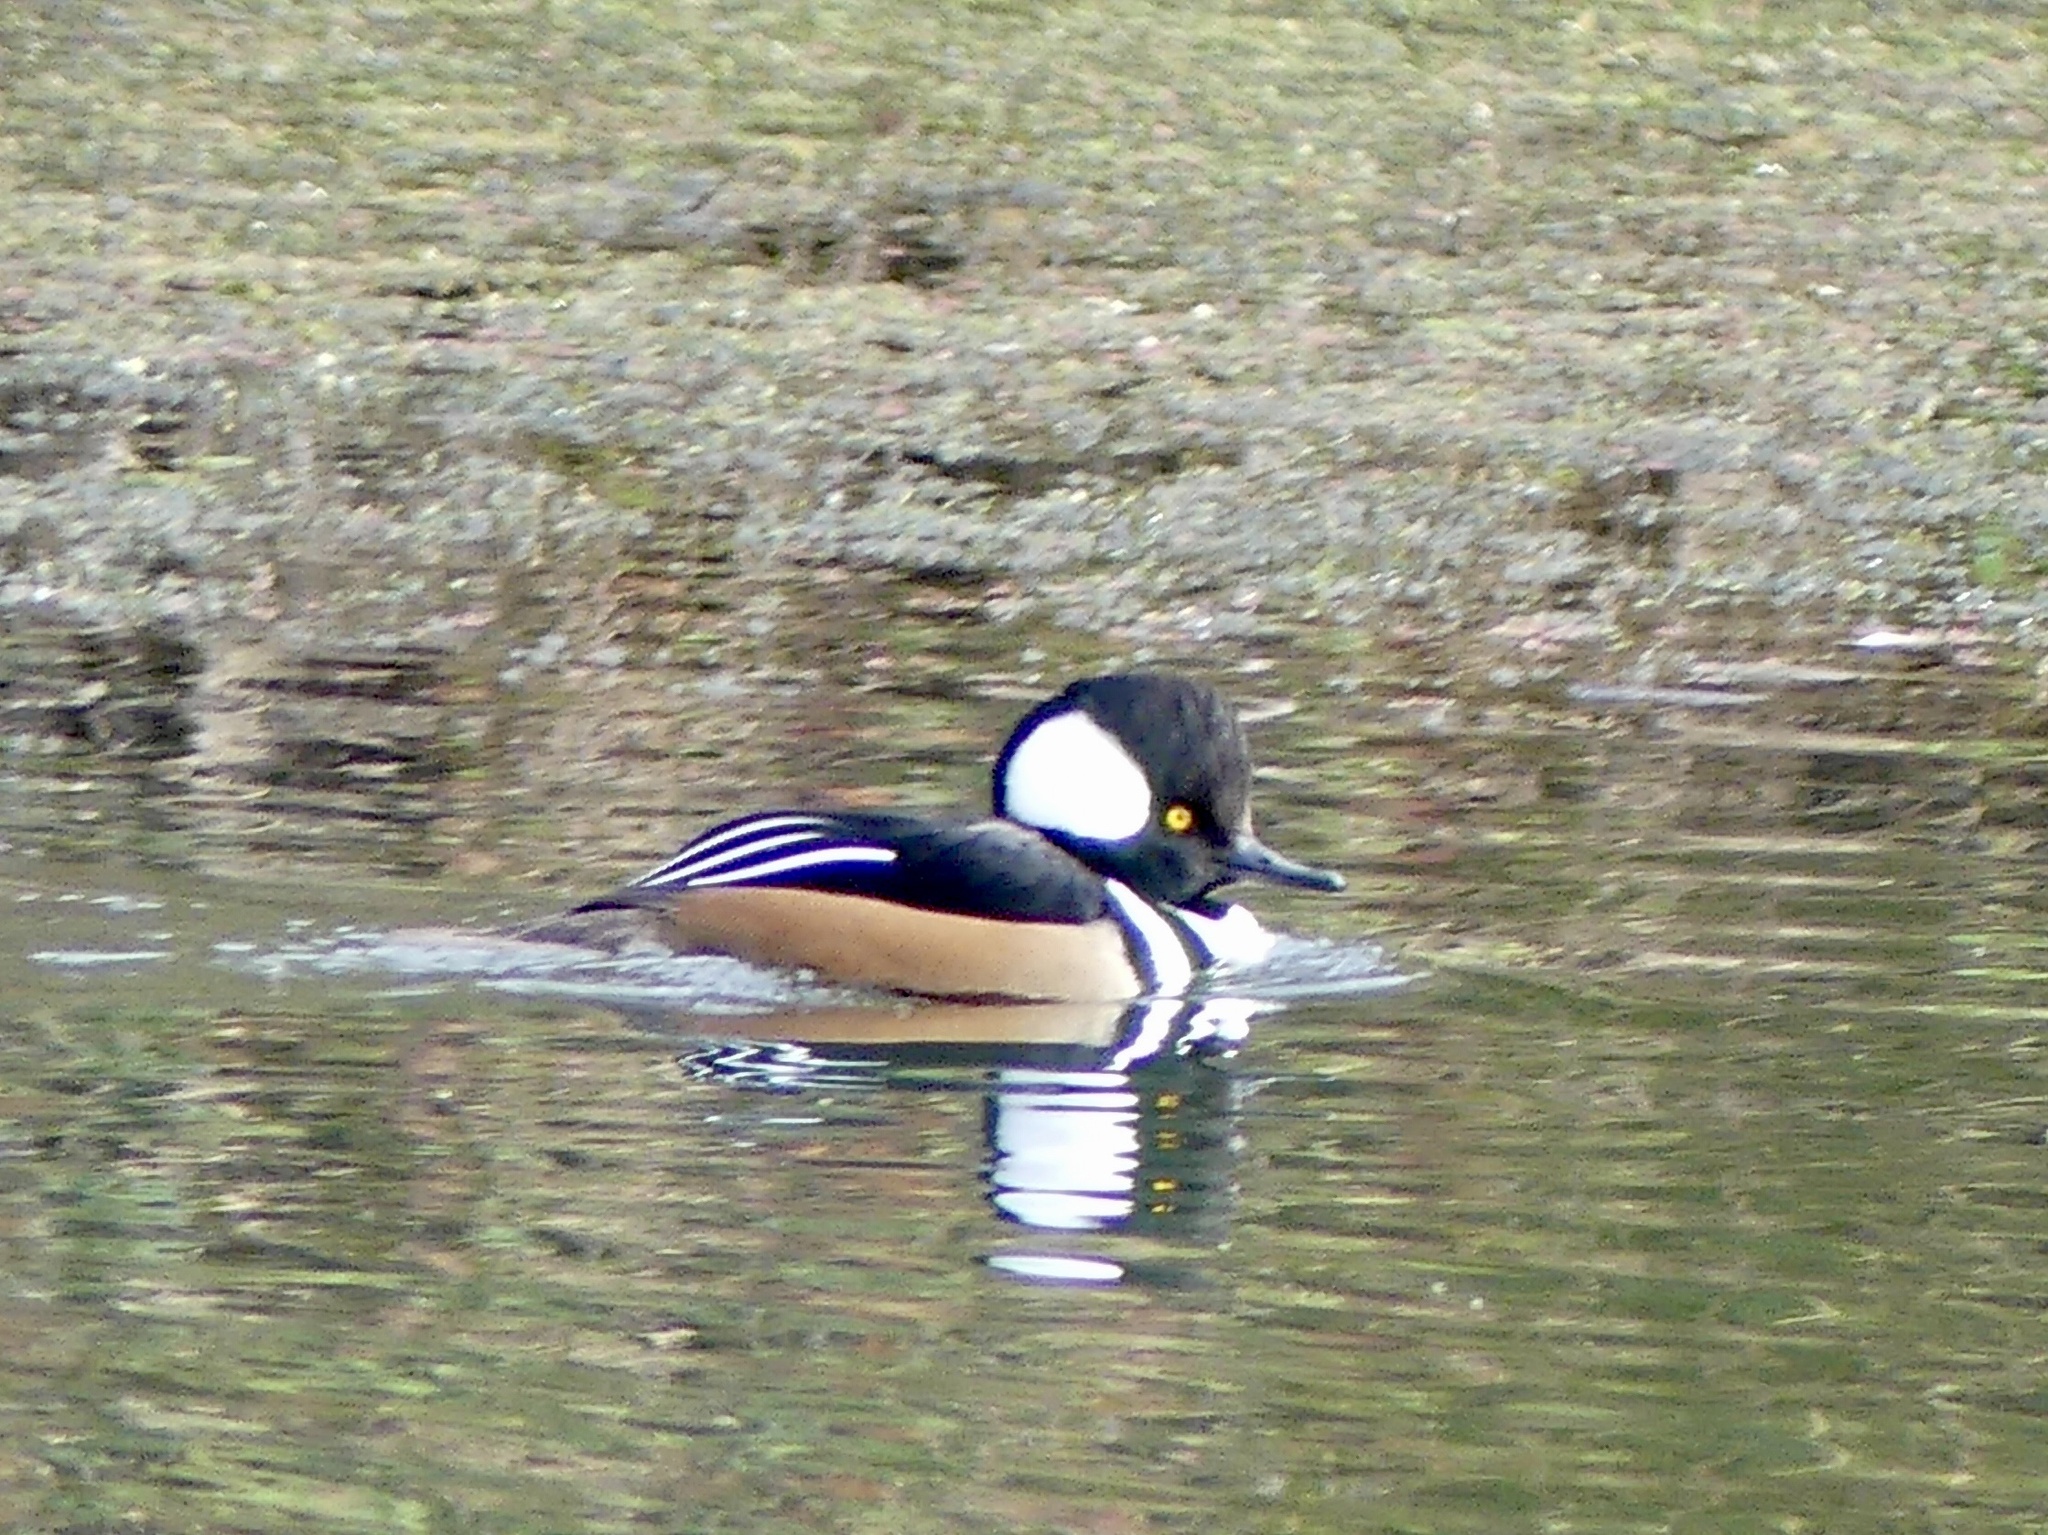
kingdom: Animalia
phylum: Chordata
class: Aves
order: Anseriformes
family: Anatidae
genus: Lophodytes
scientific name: Lophodytes cucullatus
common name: Hooded merganser
